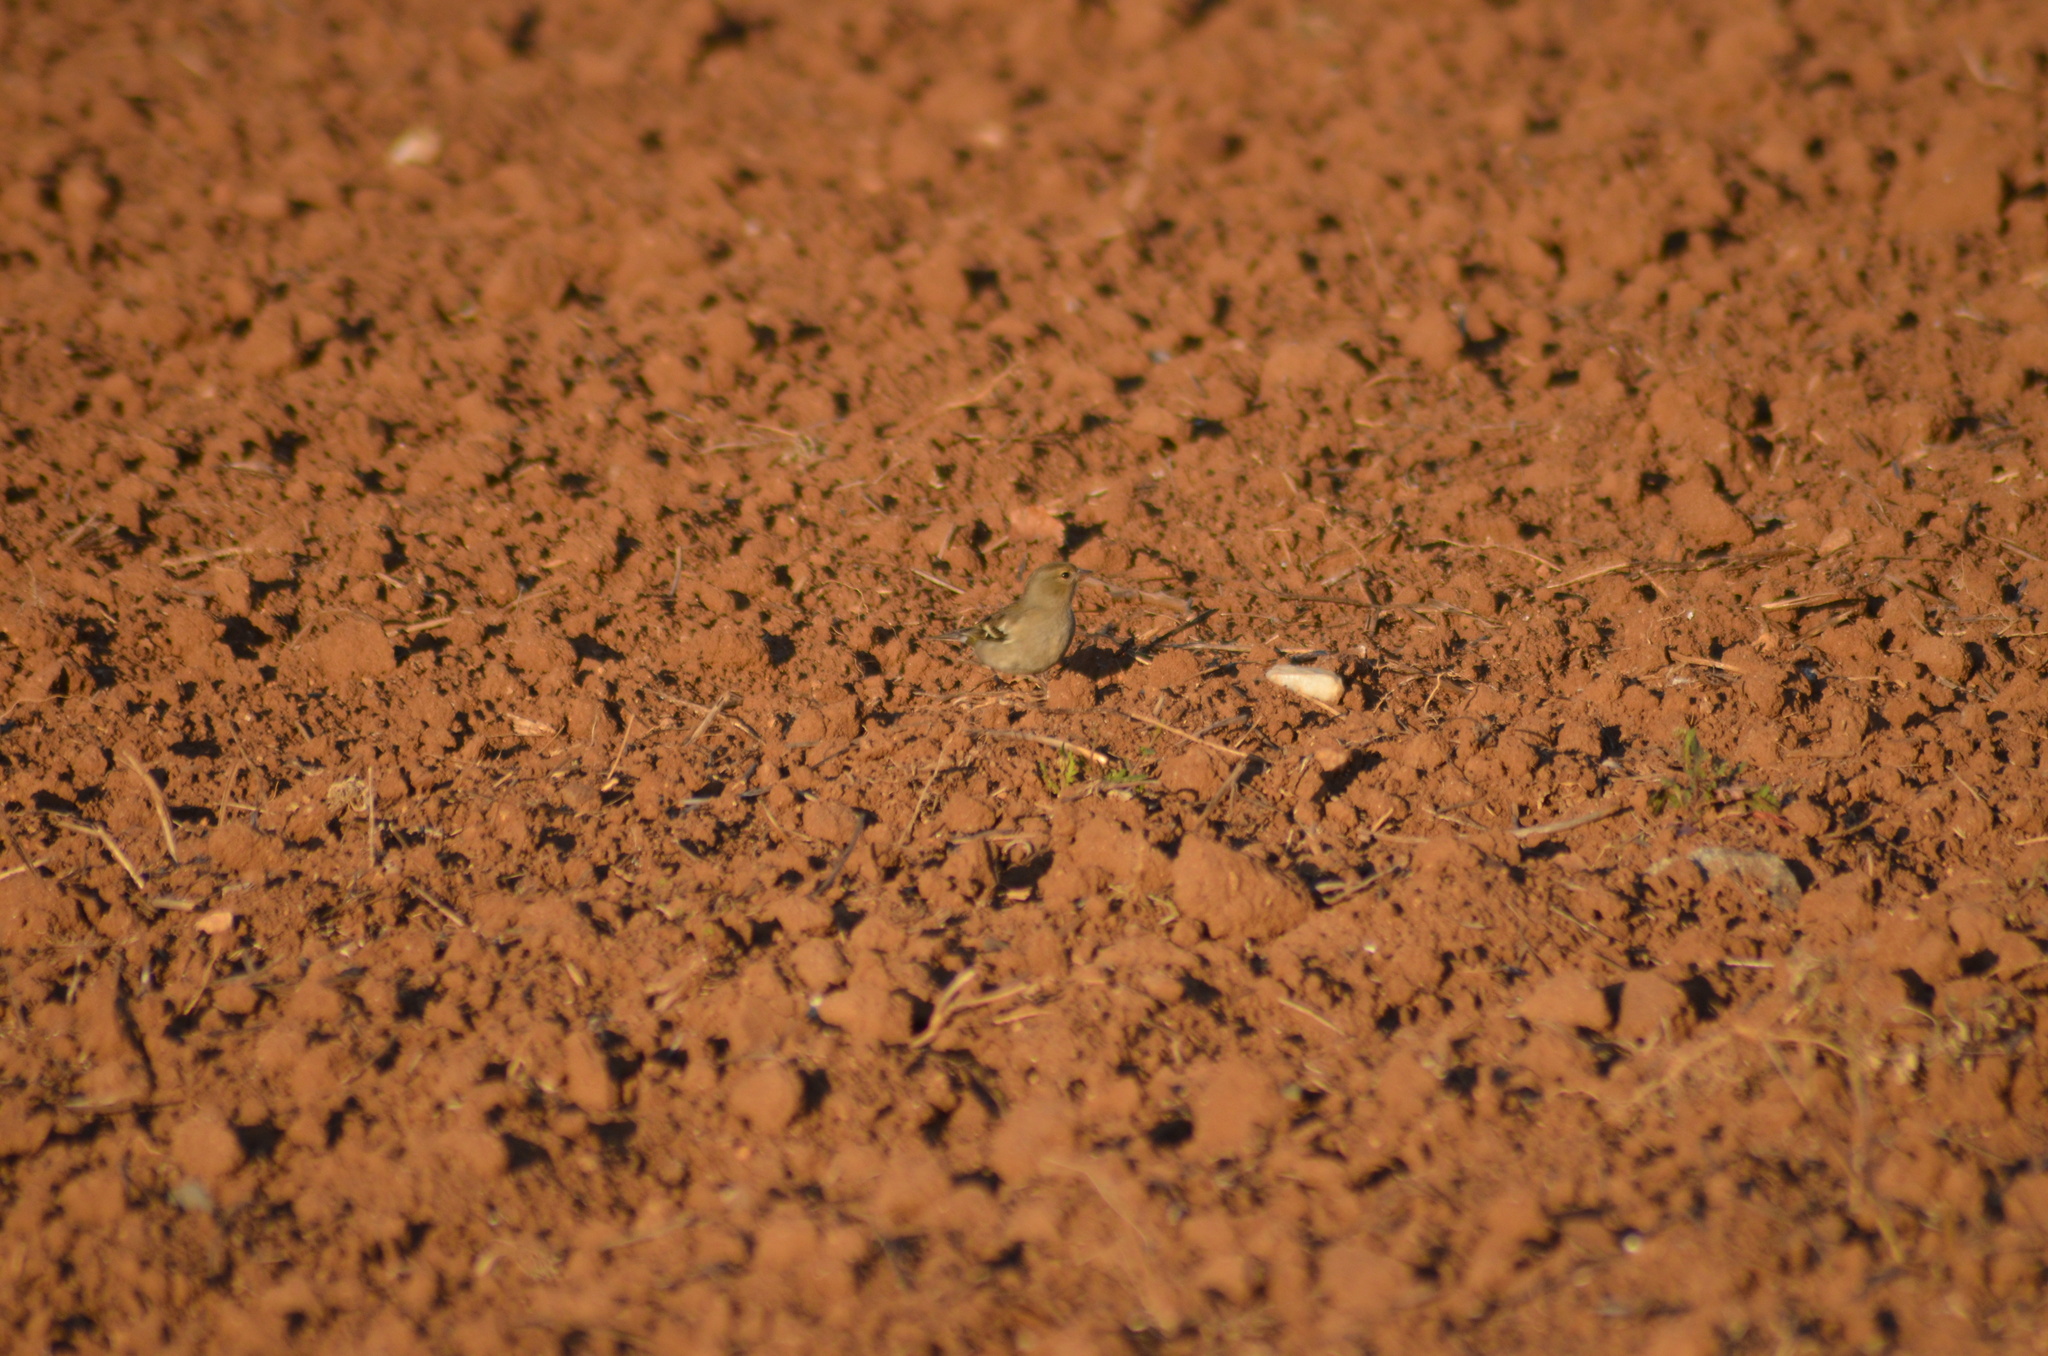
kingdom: Animalia
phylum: Chordata
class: Aves
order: Passeriformes
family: Fringillidae
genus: Fringilla
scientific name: Fringilla coelebs
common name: Common chaffinch
